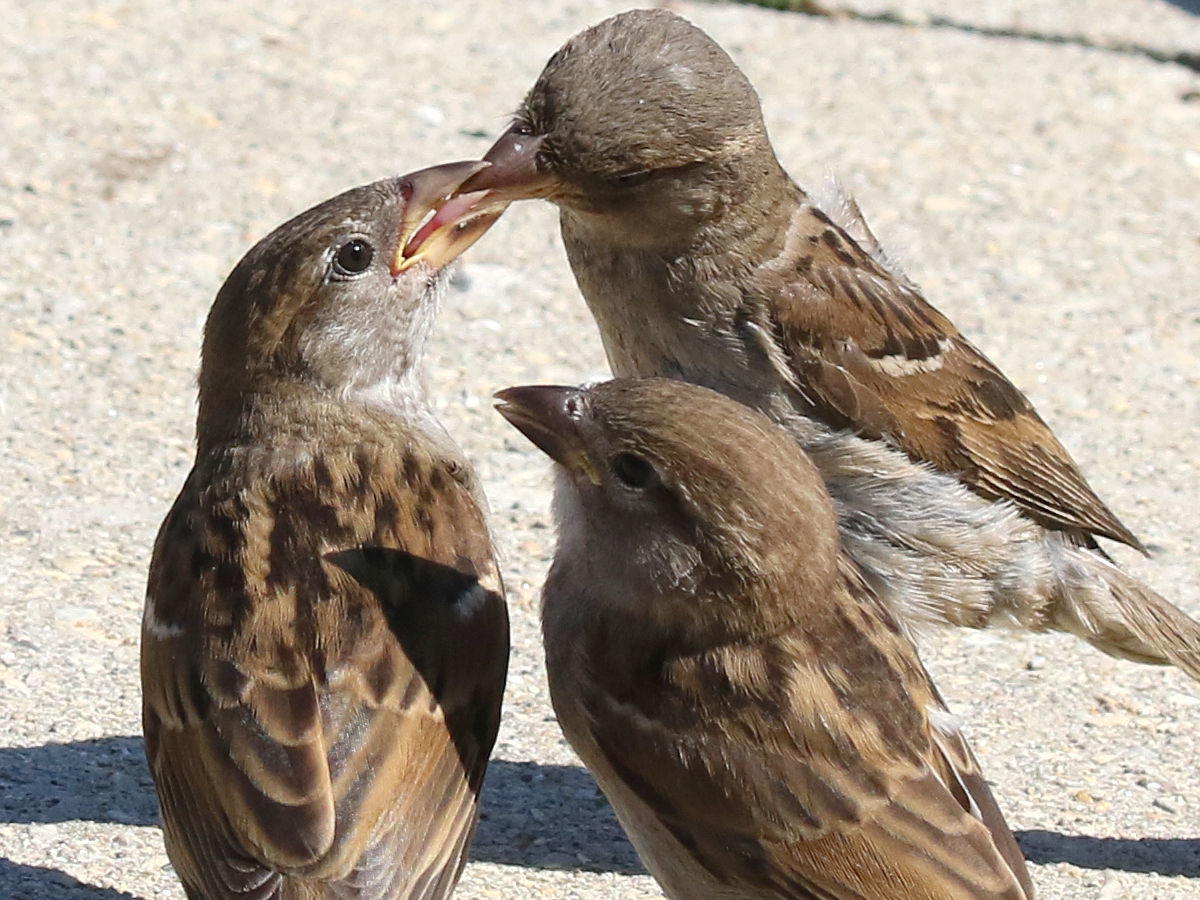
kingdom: Animalia
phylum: Chordata
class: Aves
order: Passeriformes
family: Passeridae
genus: Passer
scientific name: Passer domesticus
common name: House sparrow
